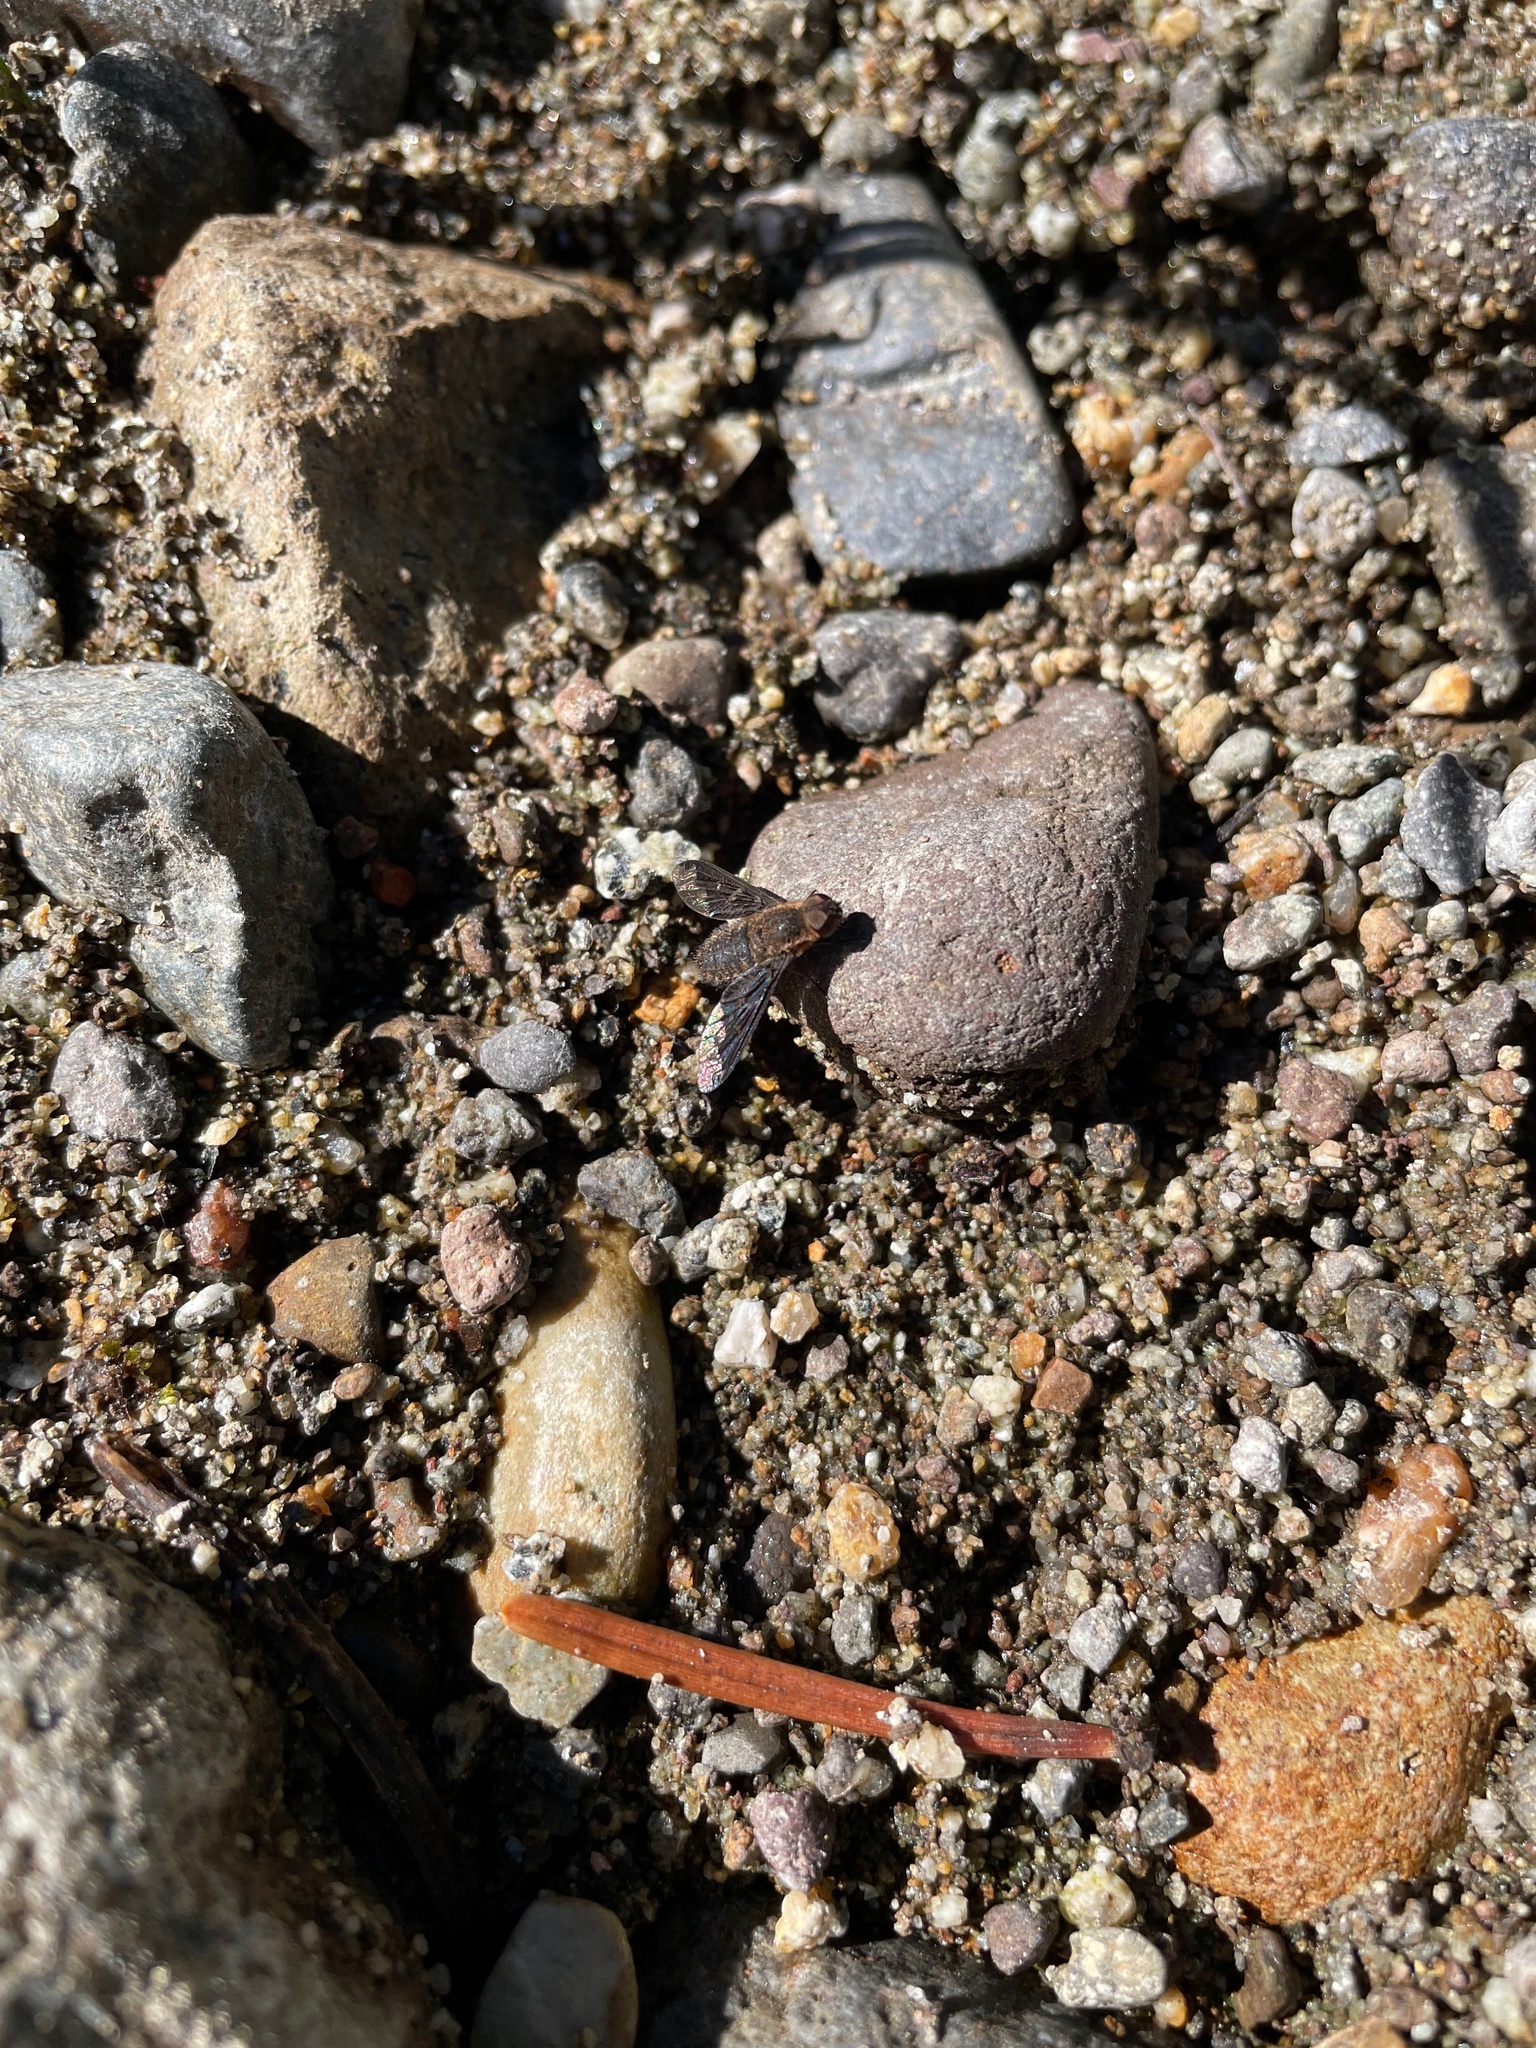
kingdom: Animalia
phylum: Arthropoda
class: Insecta
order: Diptera
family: Bombyliidae
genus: Hemipenthes
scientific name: Hemipenthes sinuosus
